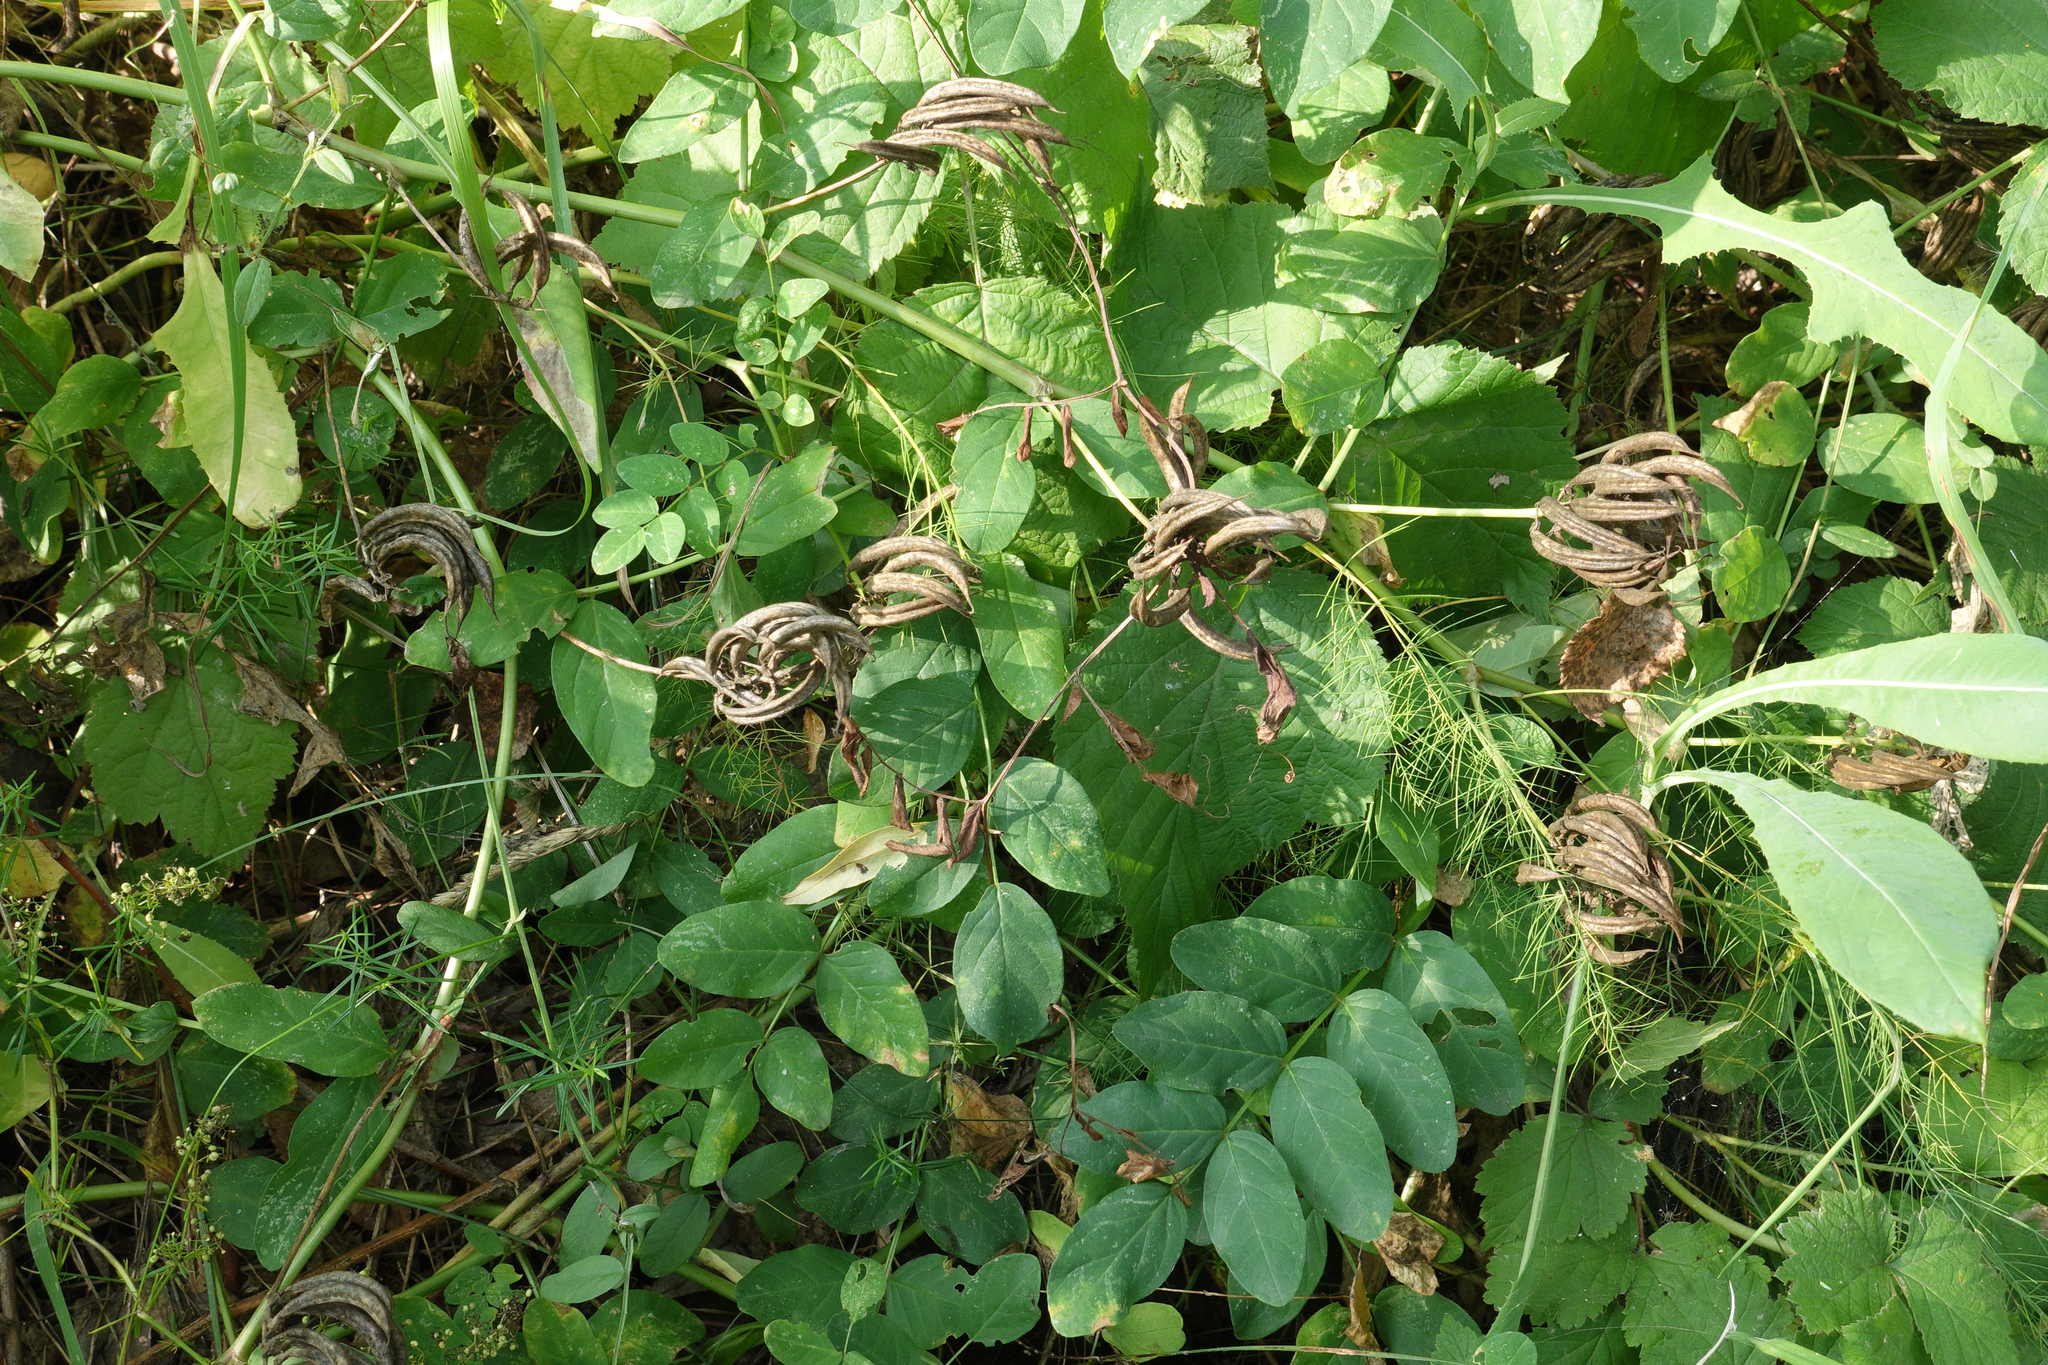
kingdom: Plantae
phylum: Tracheophyta
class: Magnoliopsida
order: Fabales
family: Fabaceae
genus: Astragalus
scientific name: Astragalus glycyphyllos
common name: Wild liquorice
